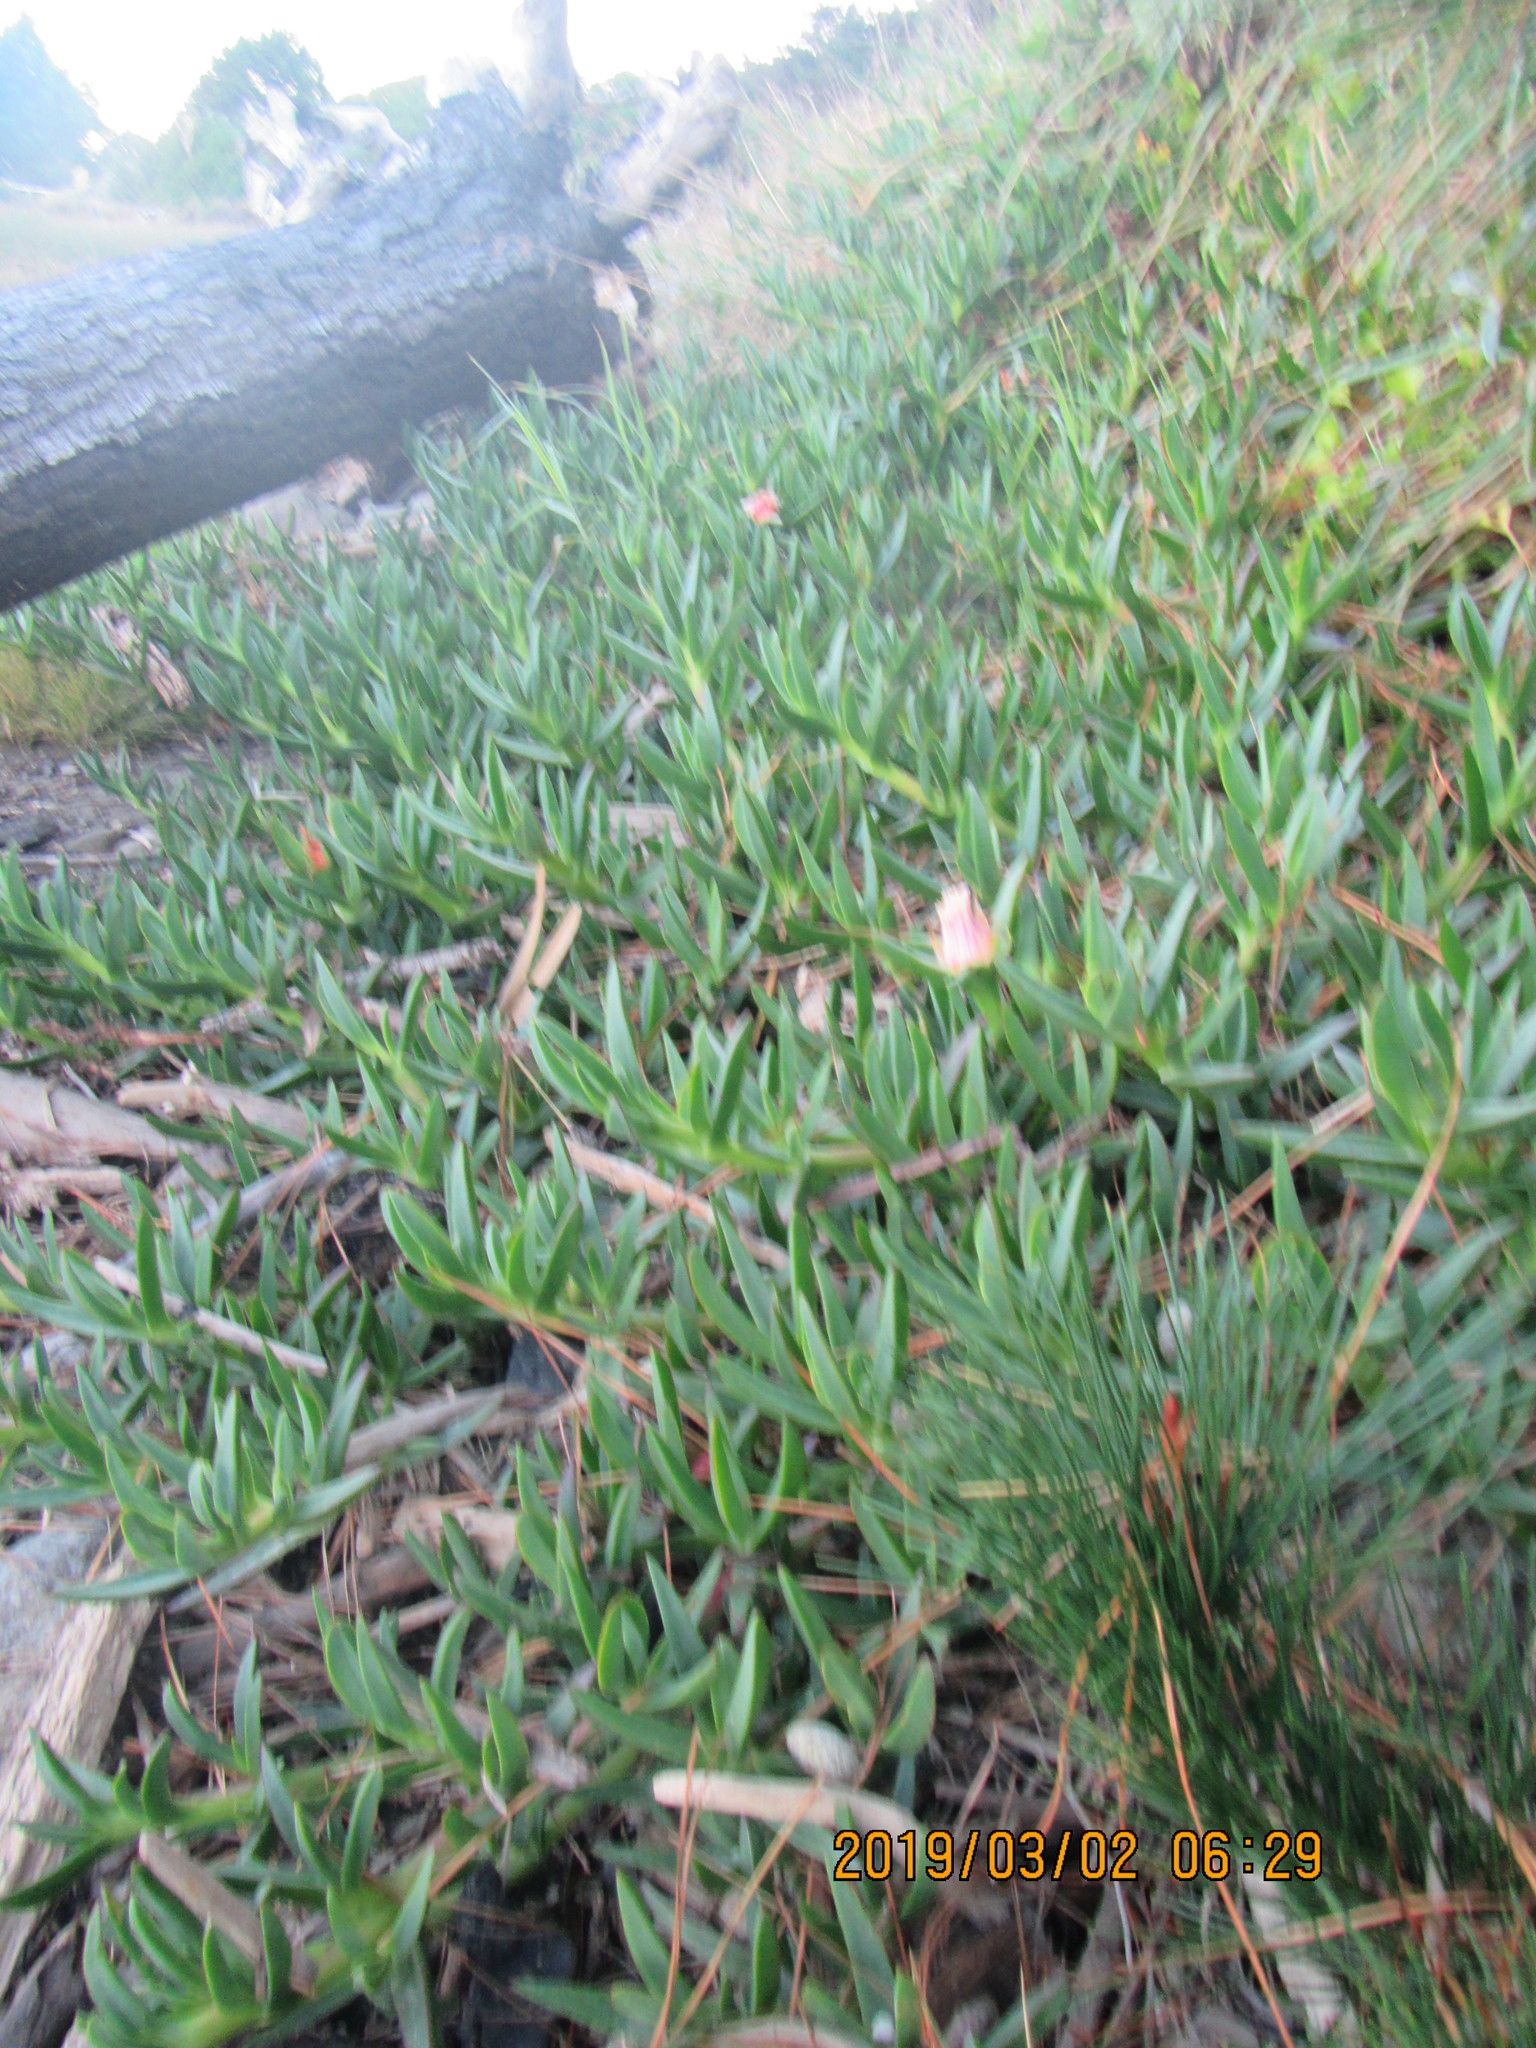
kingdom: Plantae
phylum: Tracheophyta
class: Magnoliopsida
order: Caryophyllales
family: Aizoaceae
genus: Carpobrotus
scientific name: Carpobrotus edulis
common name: Hottentot-fig
